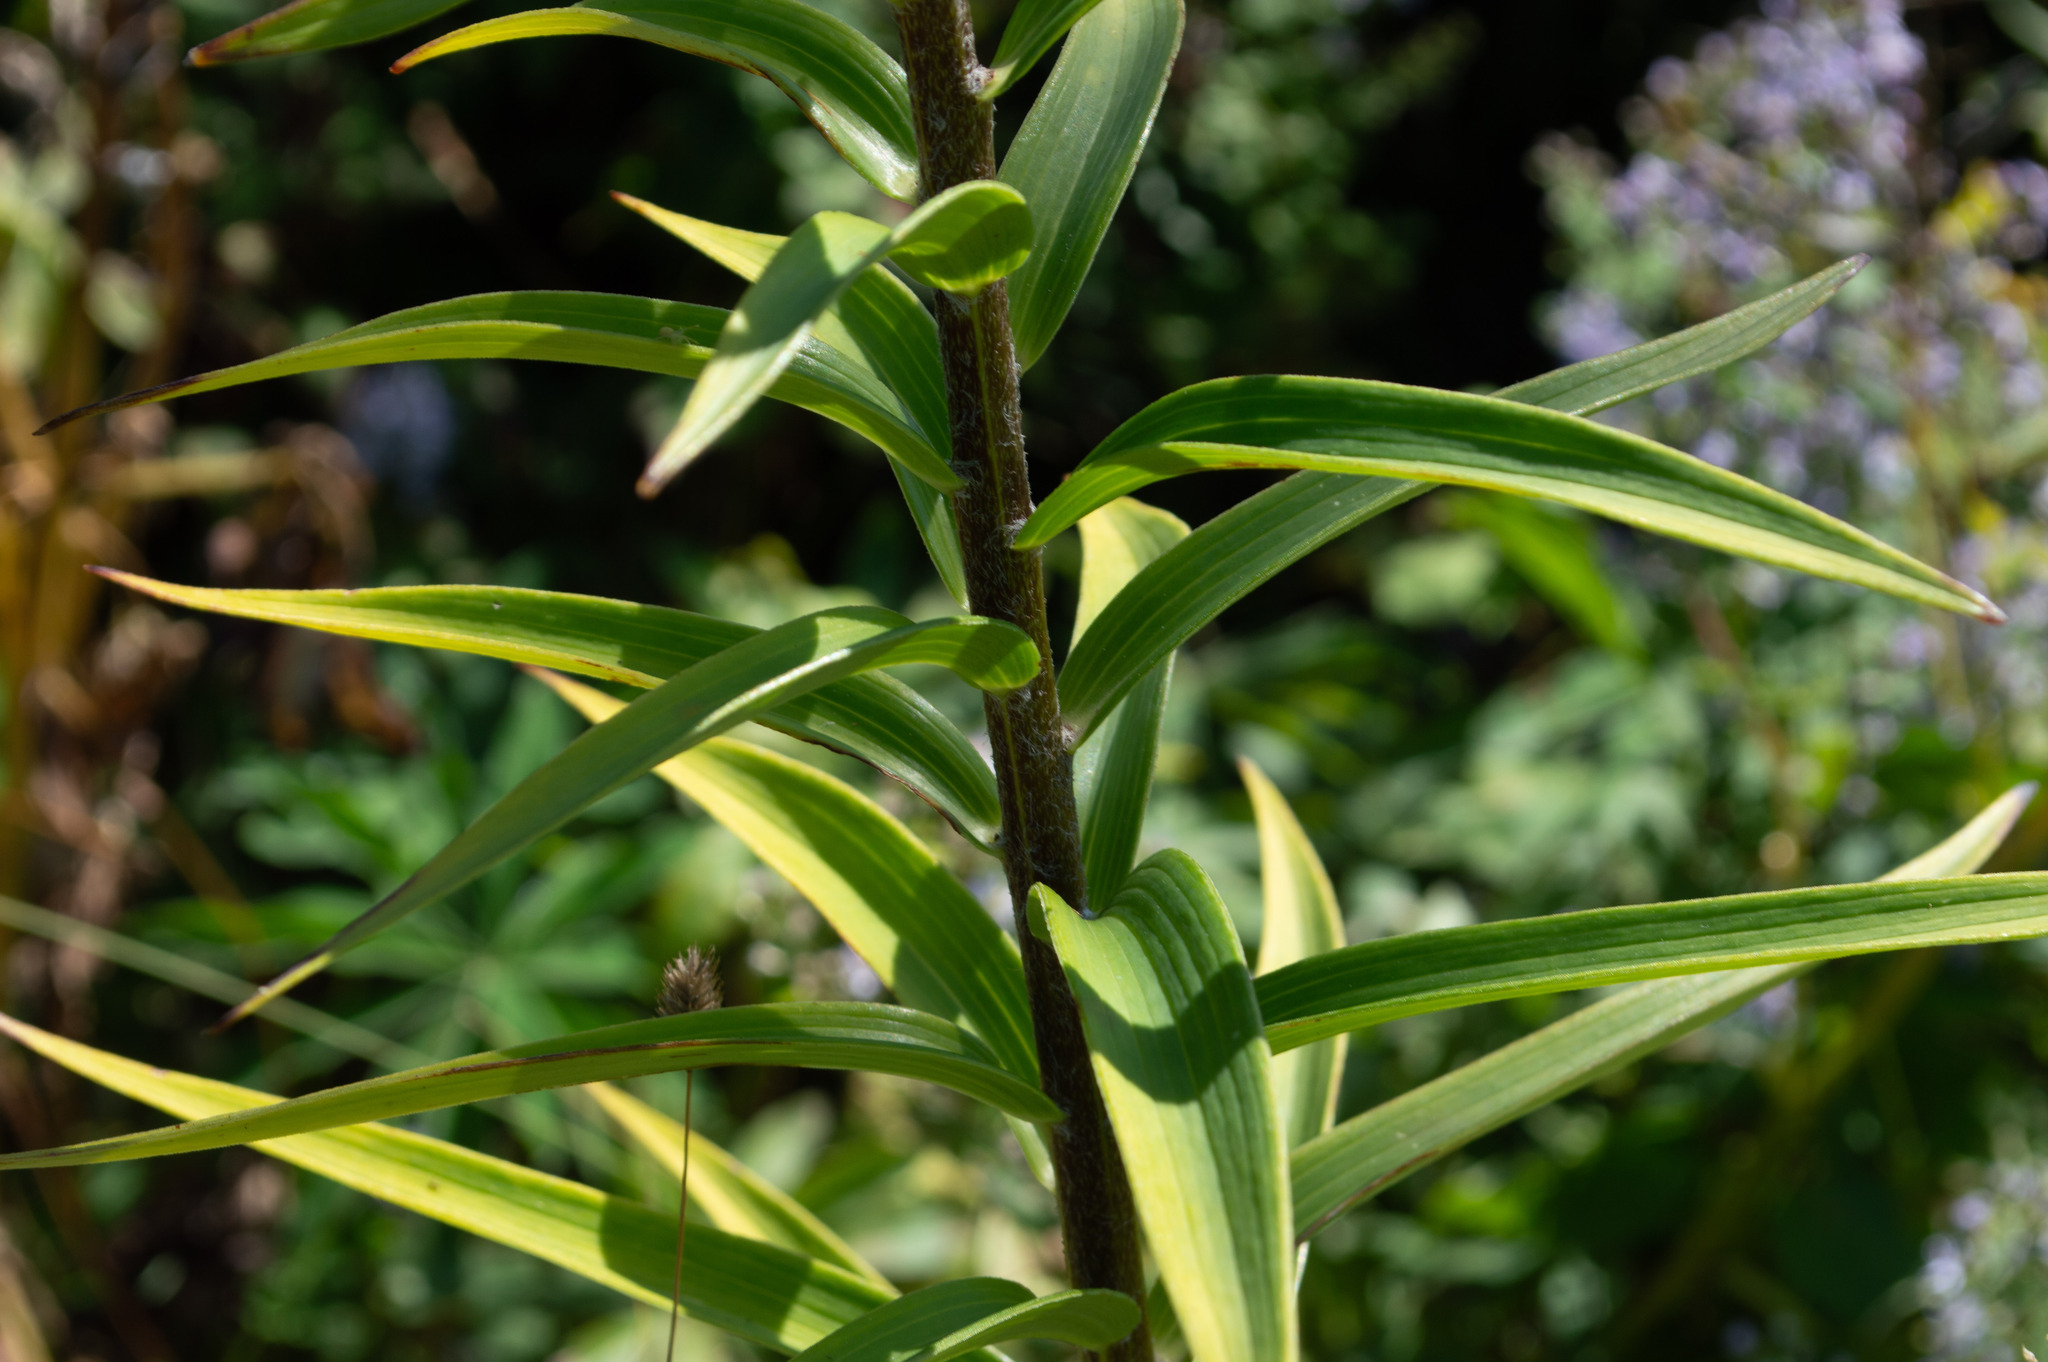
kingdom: Plantae
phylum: Tracheophyta
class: Liliopsida
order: Liliales
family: Liliaceae
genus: Lilium
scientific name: Lilium lancifolium
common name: Tiger lily
